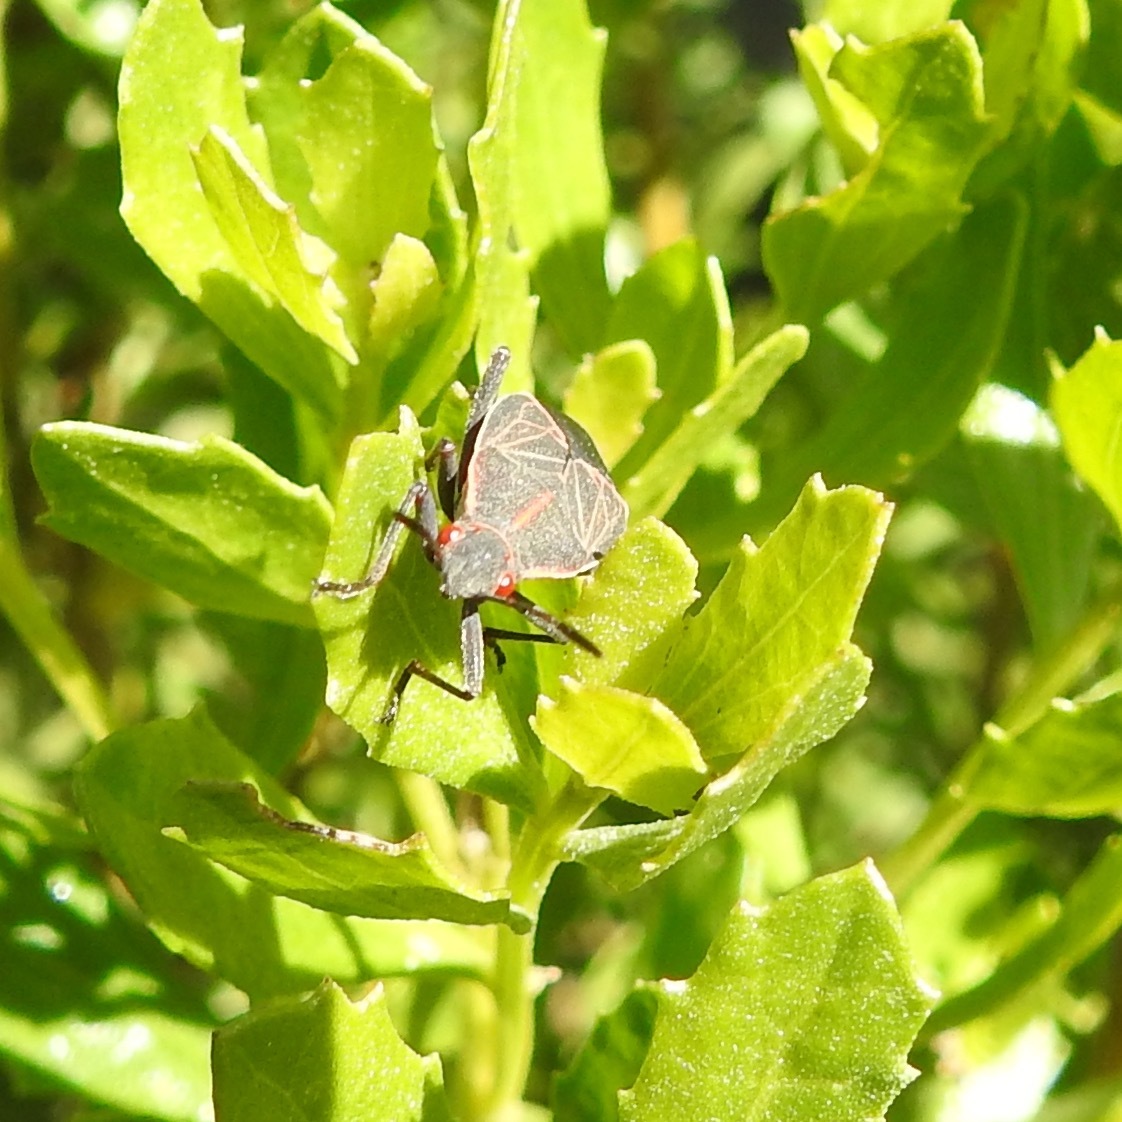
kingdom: Animalia
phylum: Arthropoda
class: Insecta
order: Hemiptera
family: Rhopalidae
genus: Boisea
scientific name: Boisea rubrolineata
